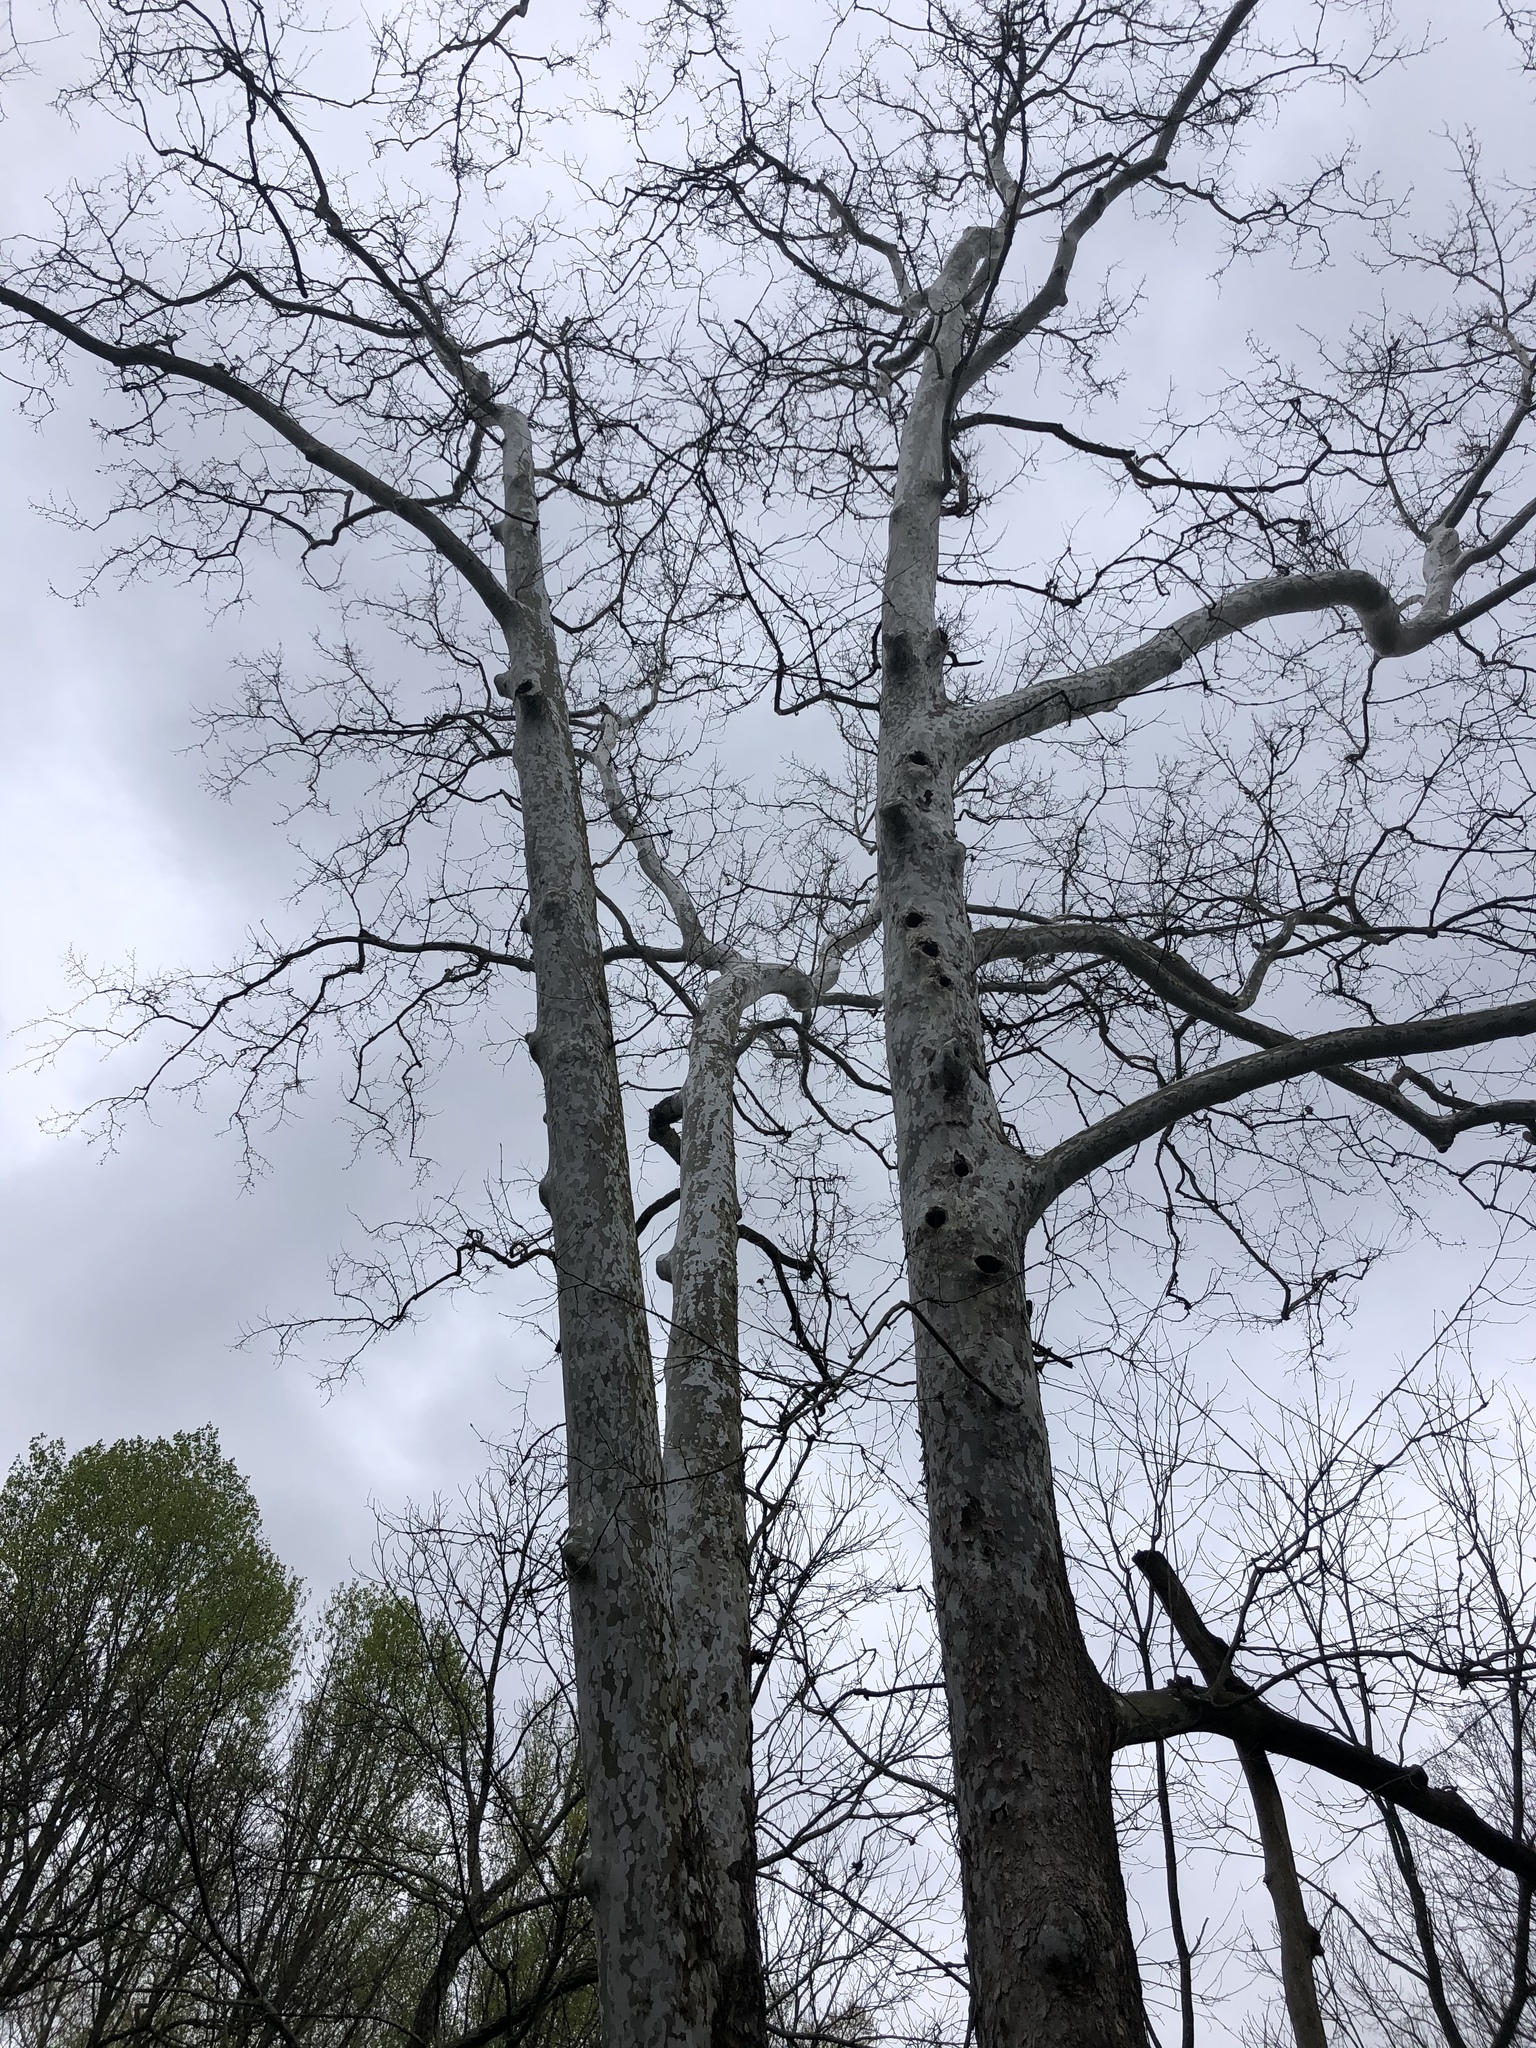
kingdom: Plantae
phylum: Tracheophyta
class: Magnoliopsida
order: Proteales
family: Platanaceae
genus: Platanus
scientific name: Platanus occidentalis
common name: American sycamore
